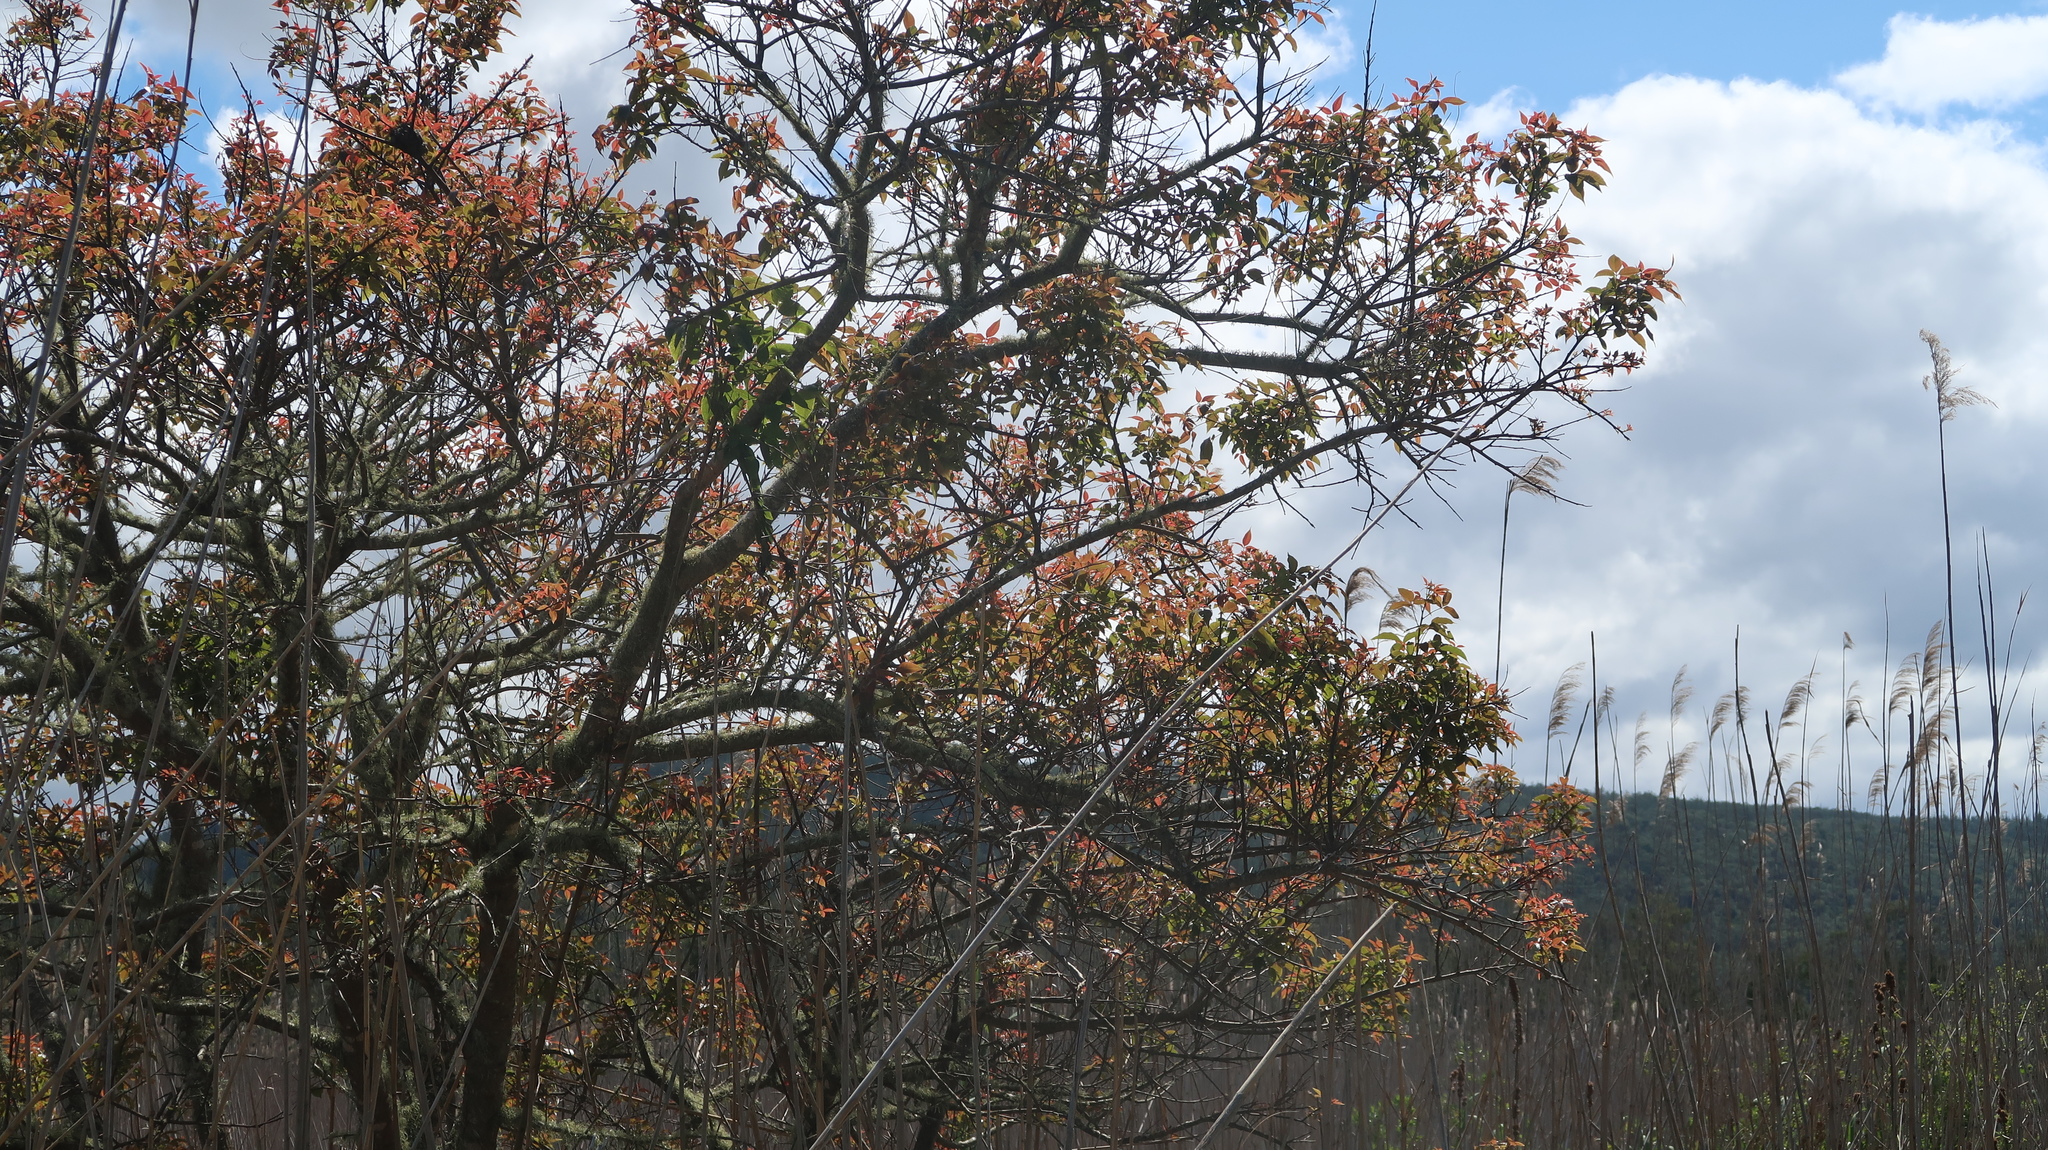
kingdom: Plantae
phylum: Tracheophyta
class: Magnoliopsida
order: Sapindales
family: Anacardiaceae
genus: Searsia
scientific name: Searsia chirindensis
